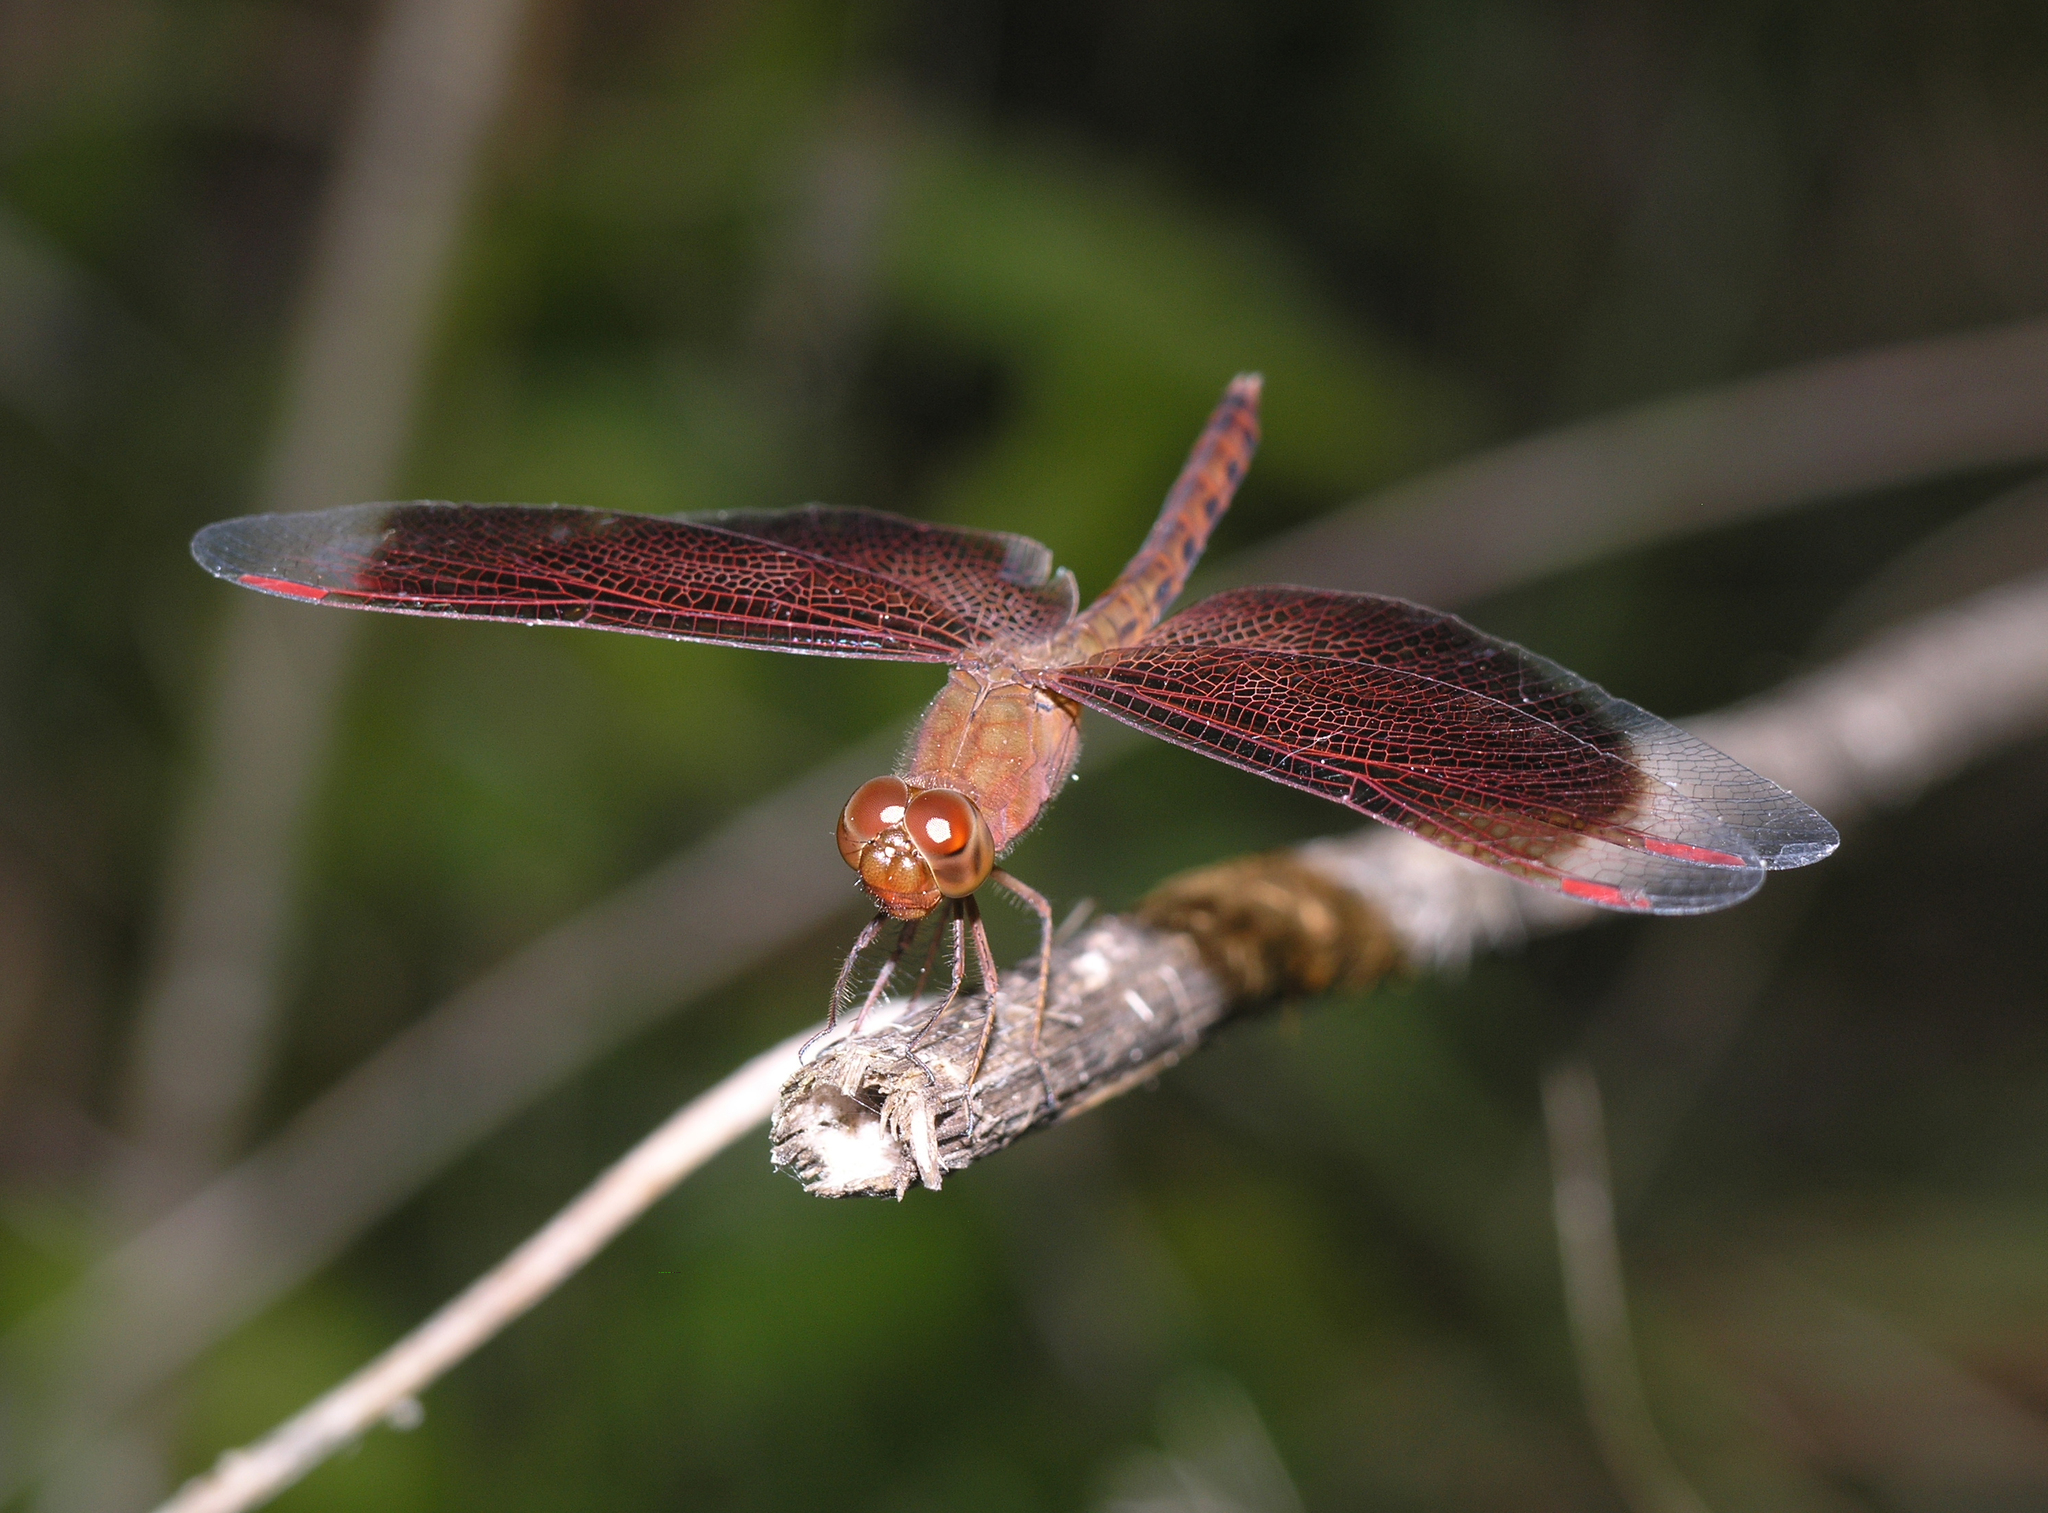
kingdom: Animalia
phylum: Arthropoda
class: Insecta
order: Odonata
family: Libellulidae
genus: Neurothemis
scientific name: Neurothemis fluctuans
